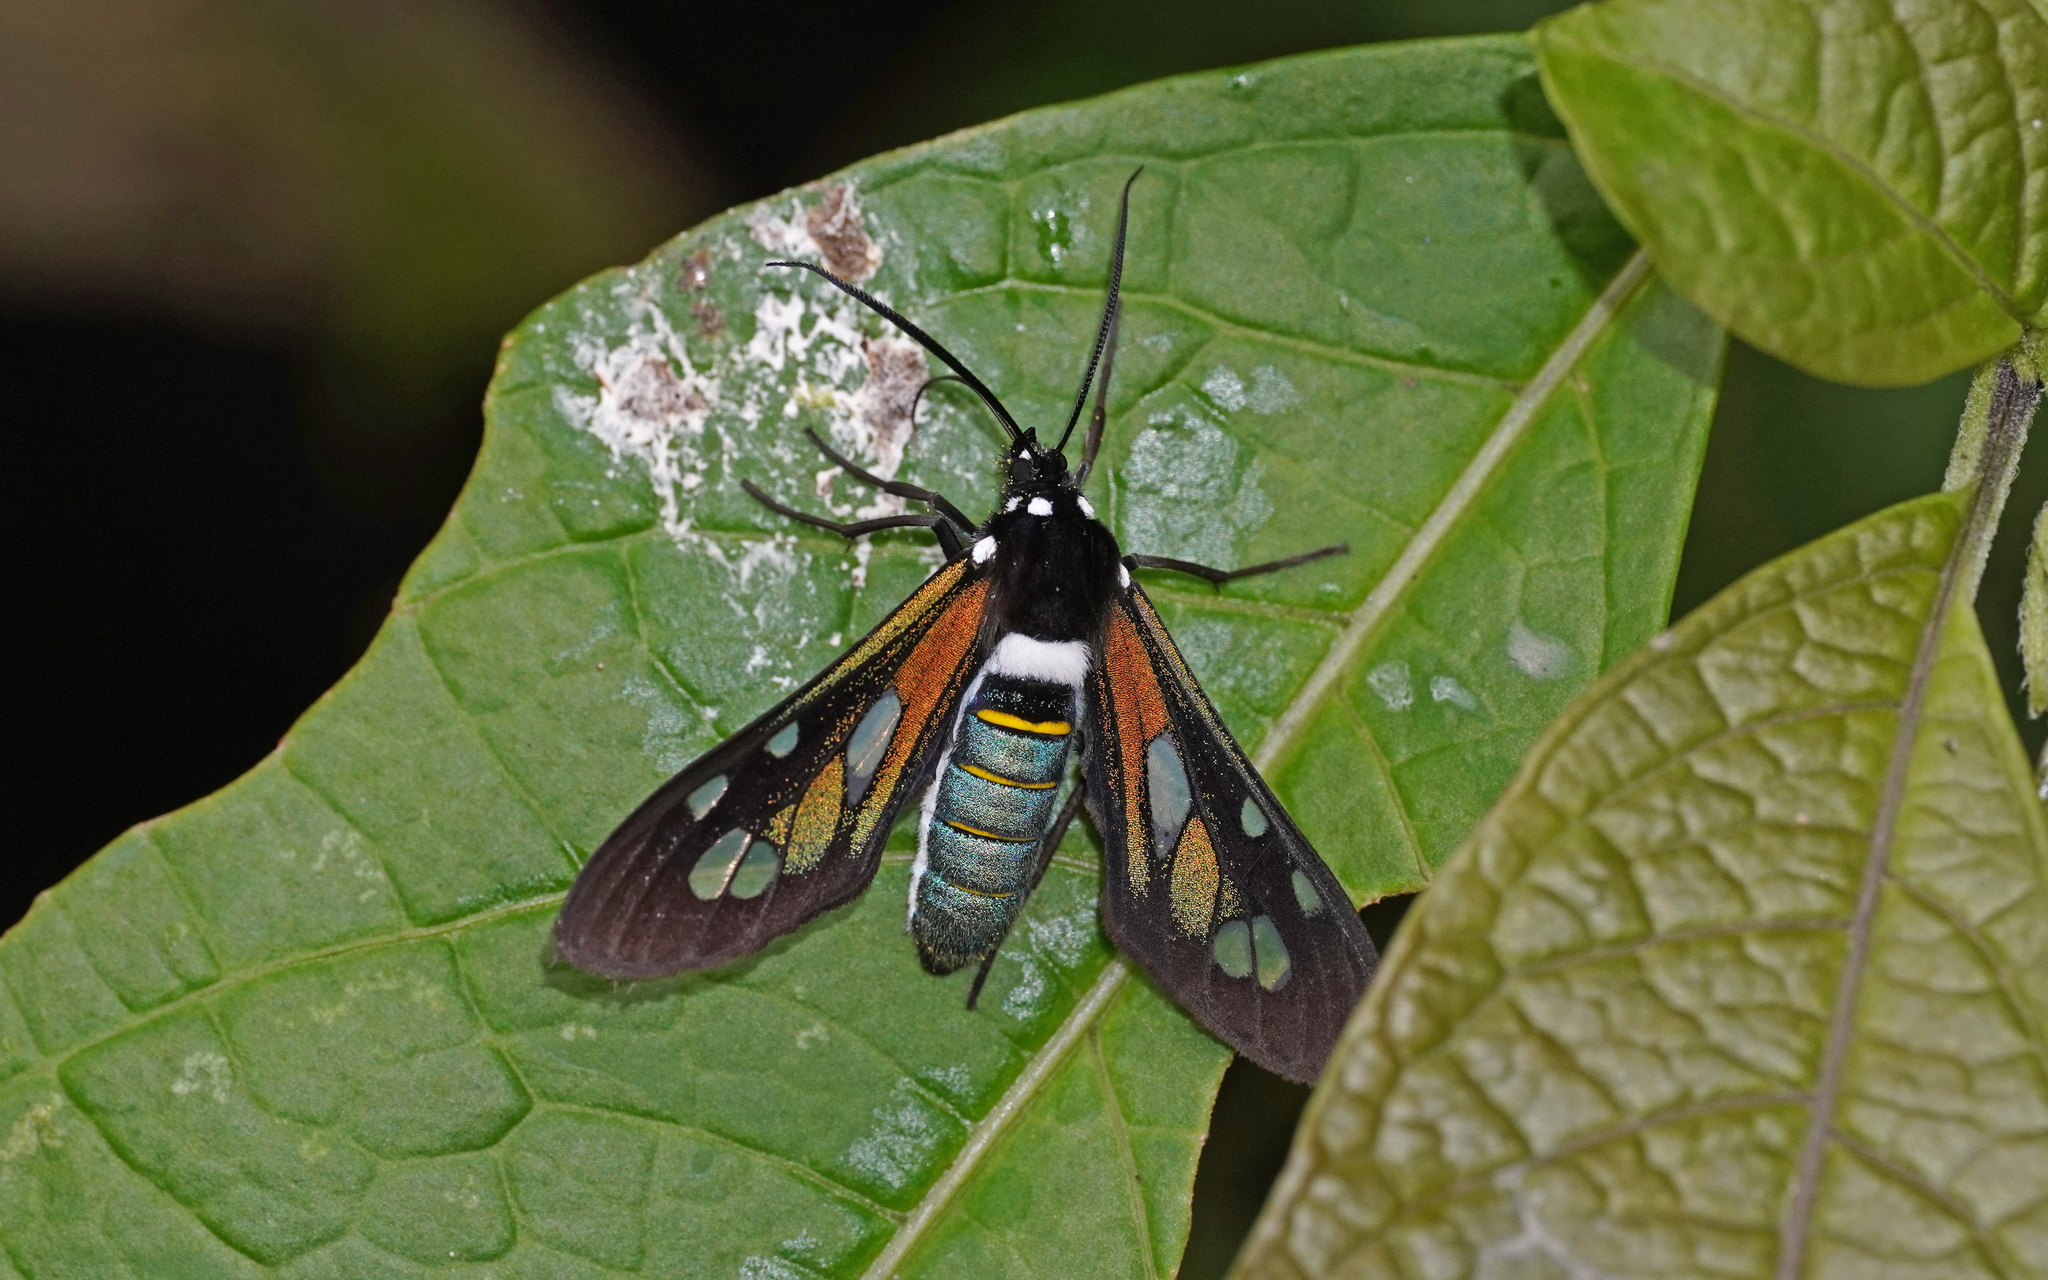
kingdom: Animalia
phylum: Arthropoda
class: Insecta
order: Lepidoptera
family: Erebidae
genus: Phaio
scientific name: Phaio cephalena
